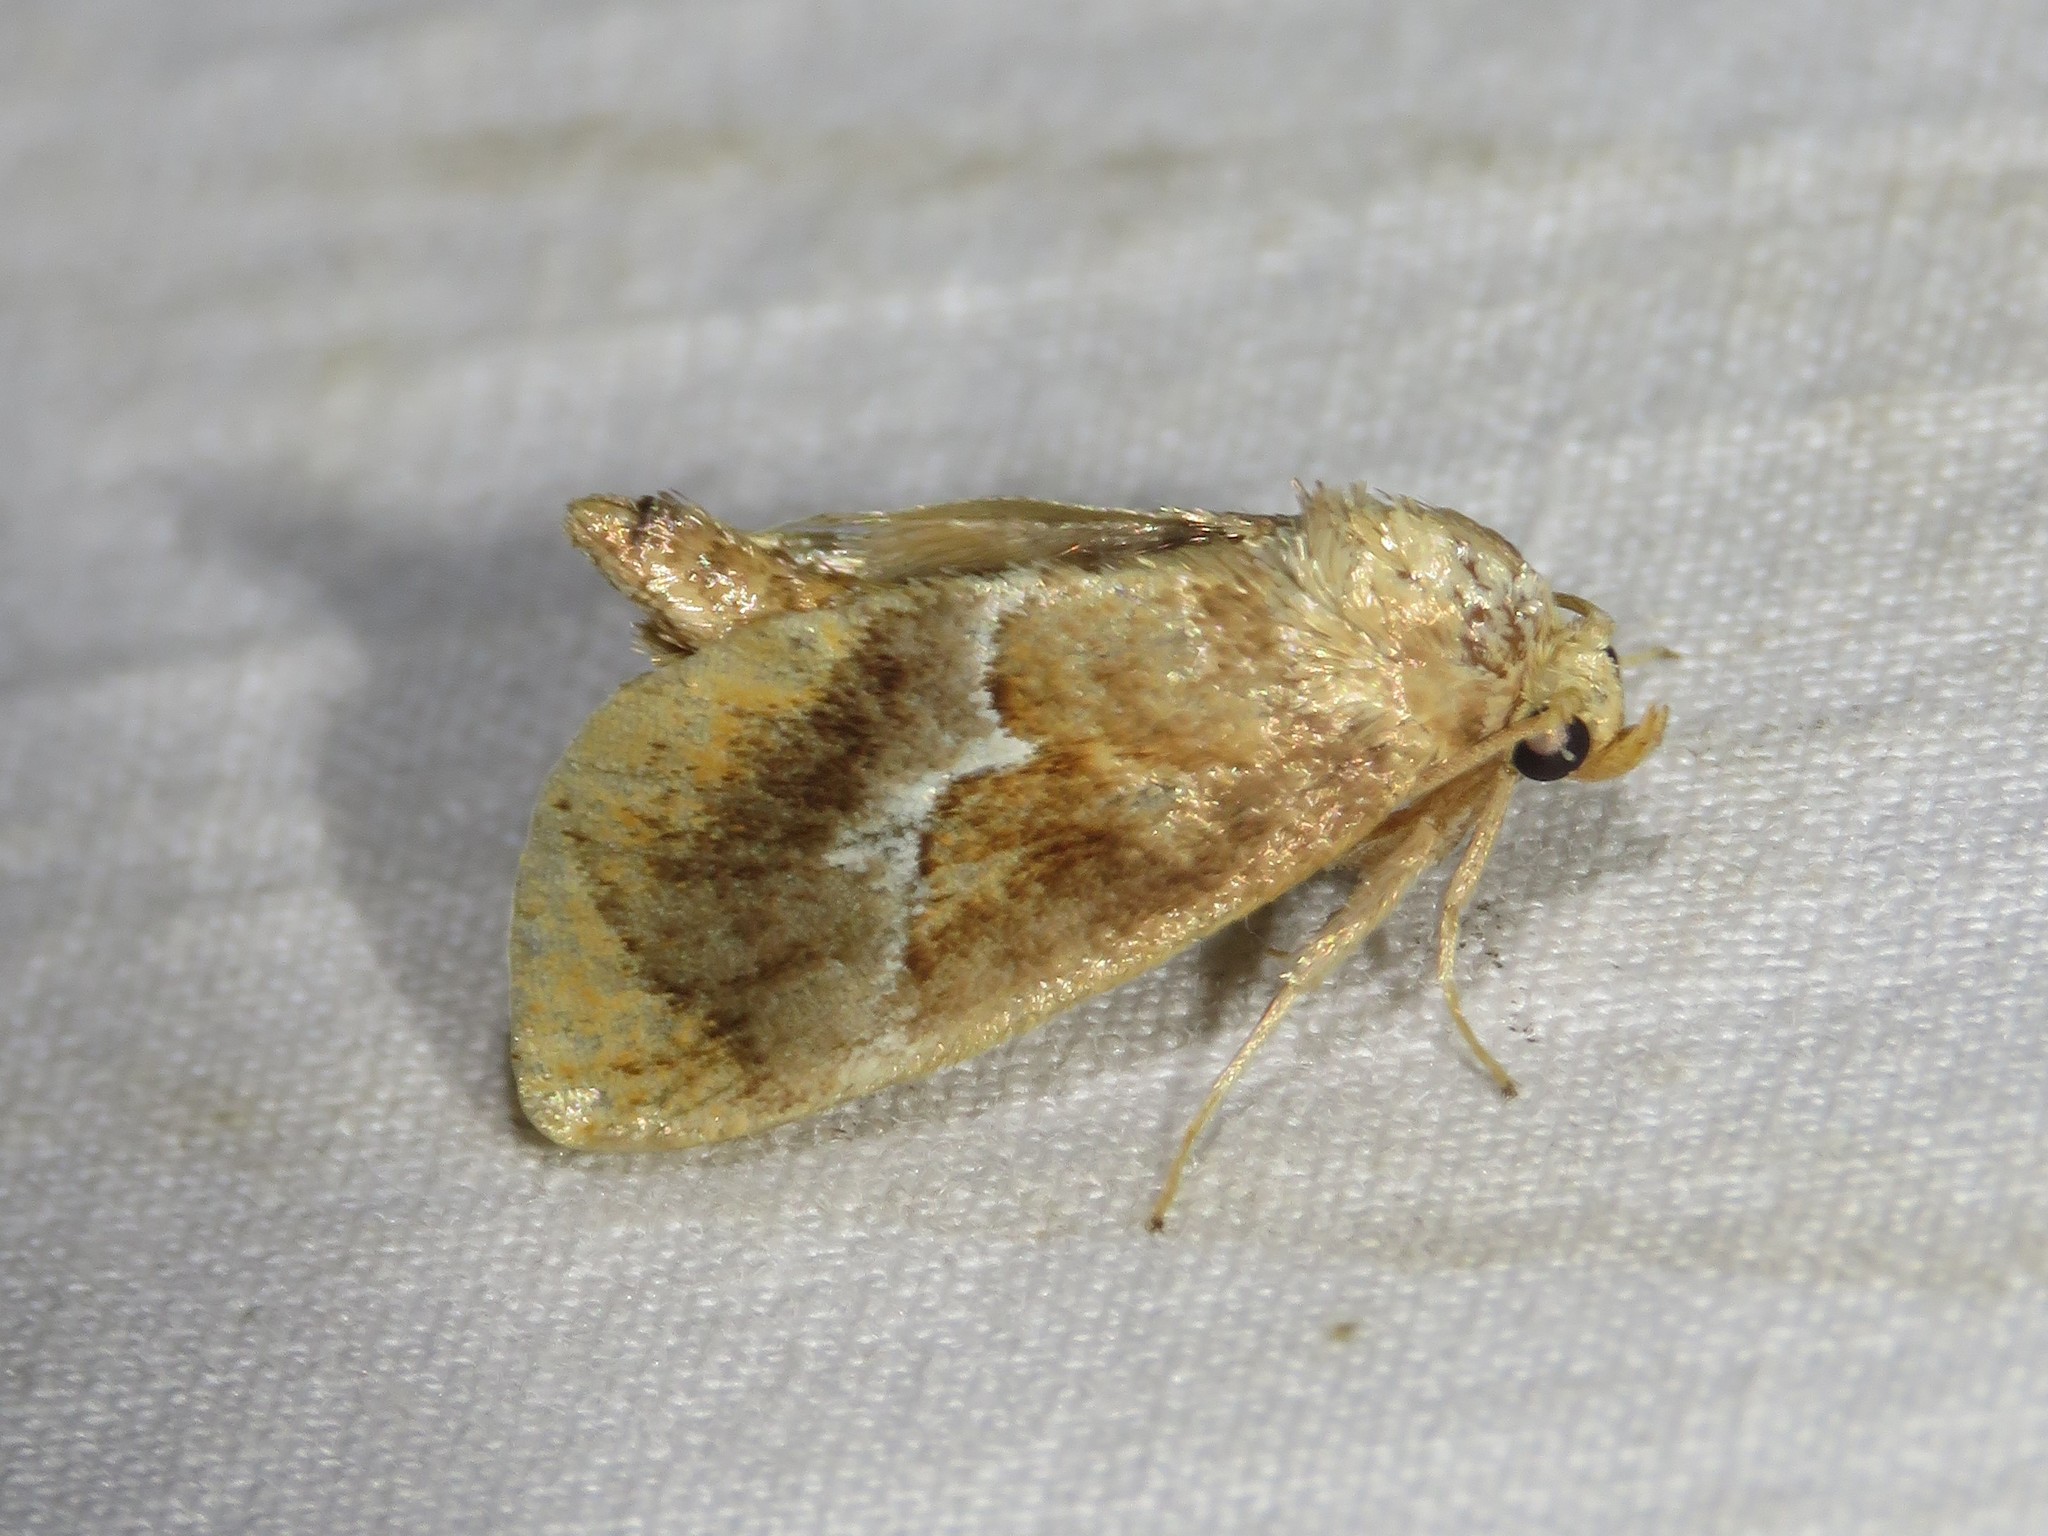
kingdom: Animalia
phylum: Arthropoda
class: Insecta
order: Lepidoptera
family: Limacodidae
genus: Lithacodes
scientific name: Lithacodes fasciola
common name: Yellow-shouldered slug moth
